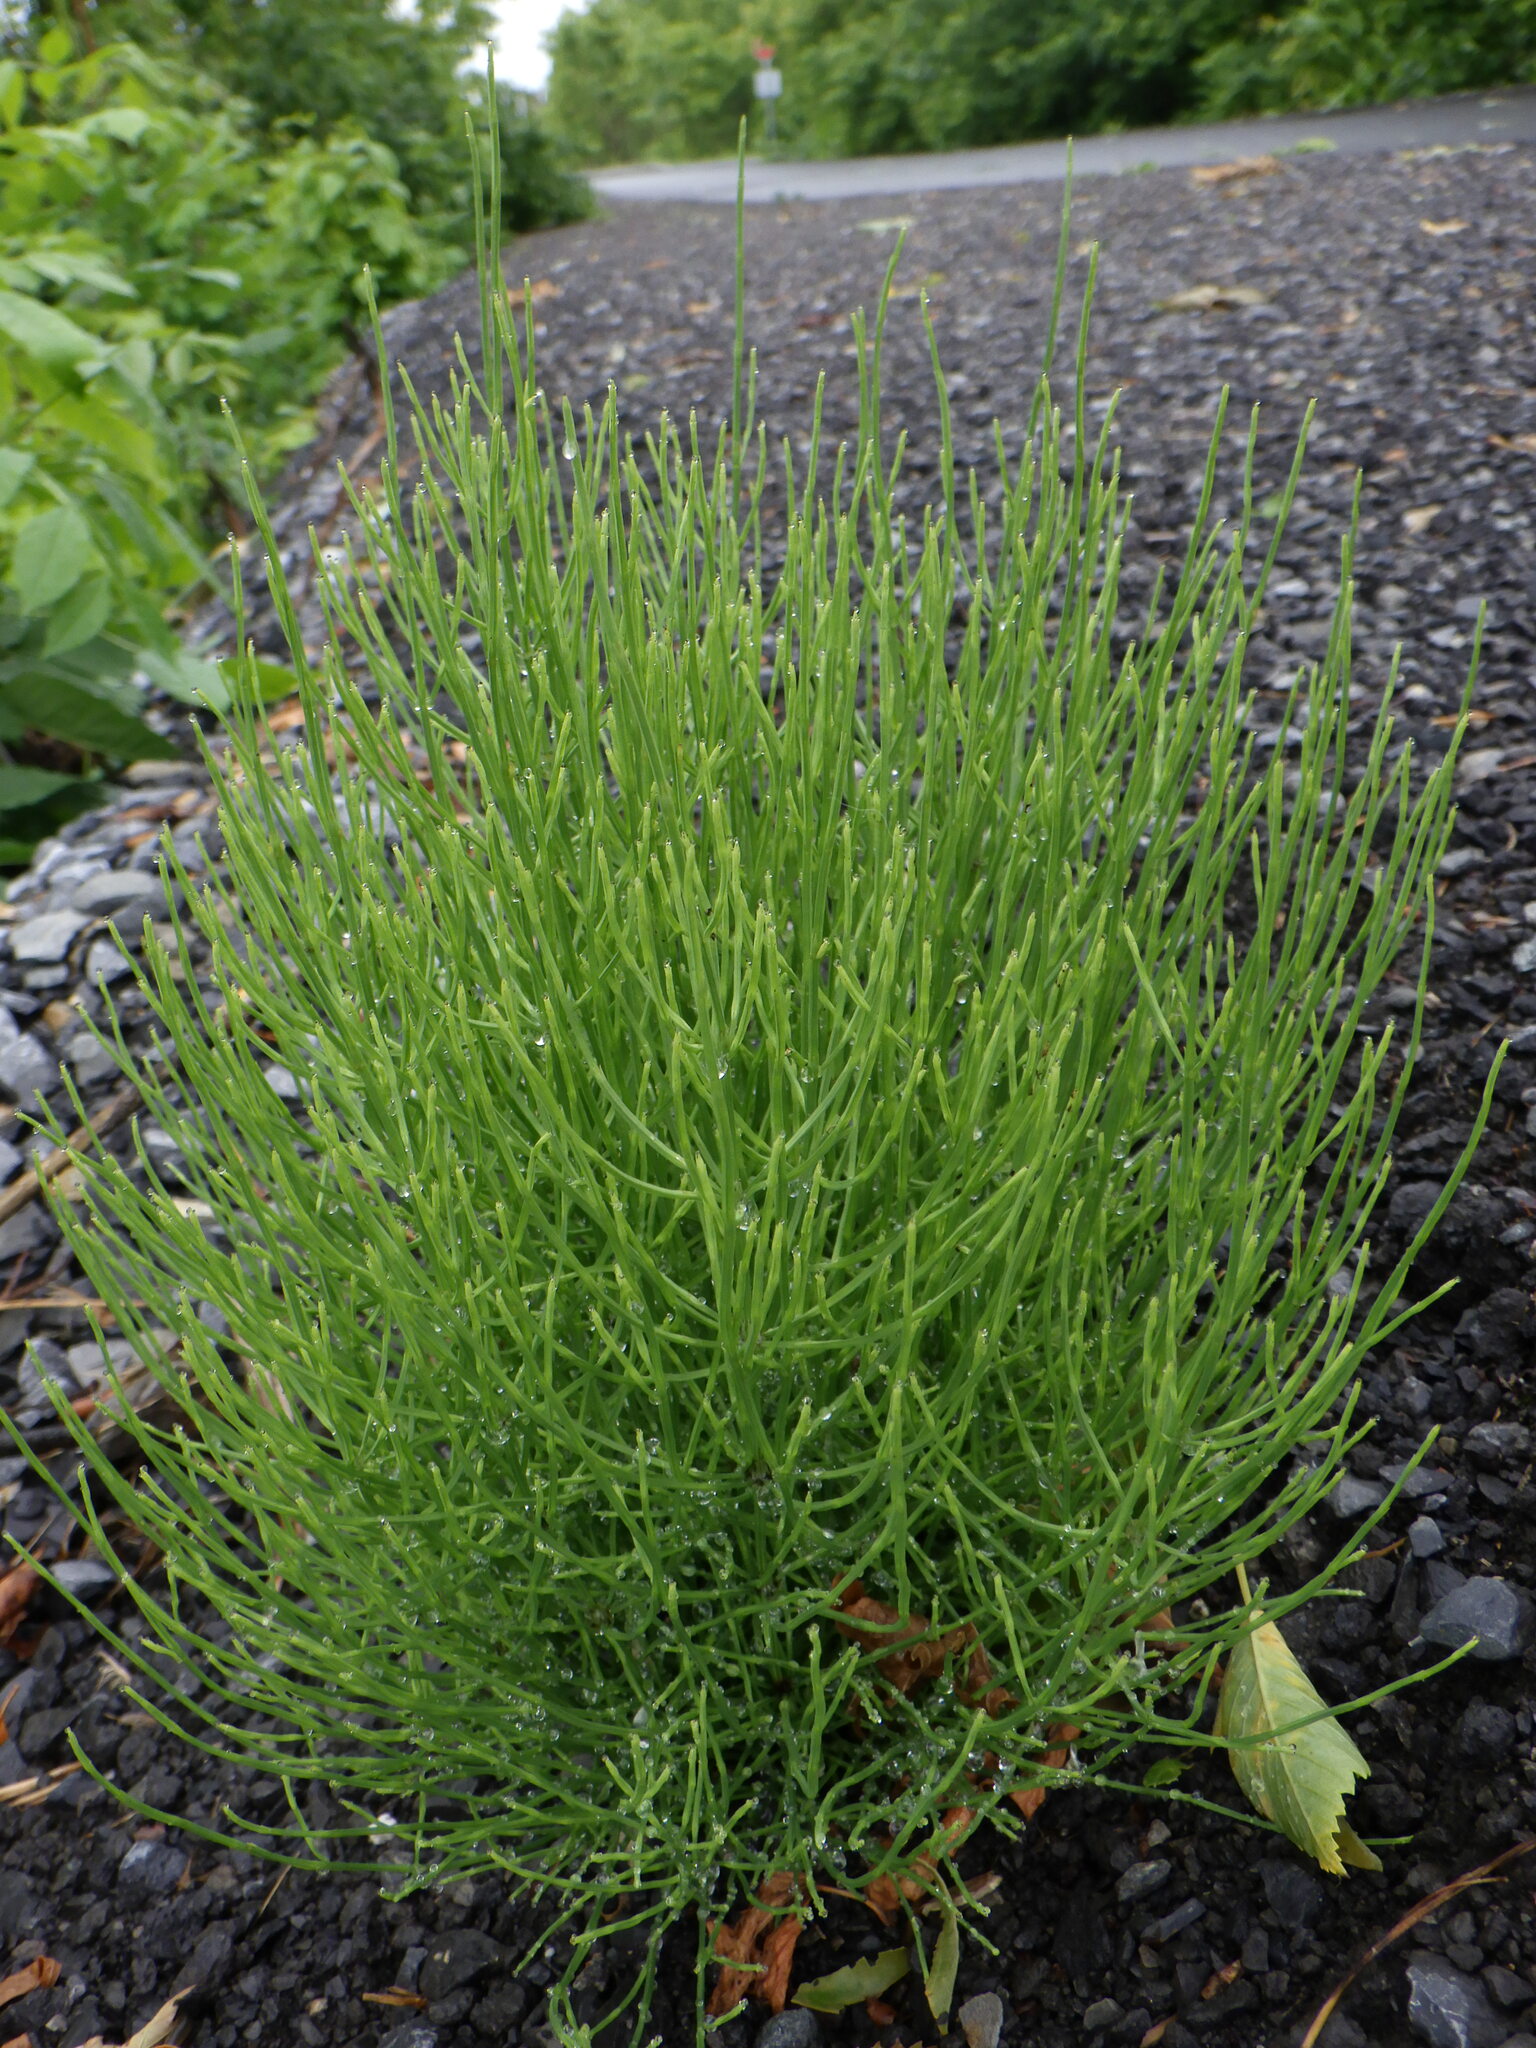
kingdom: Plantae
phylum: Tracheophyta
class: Polypodiopsida
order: Equisetales
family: Equisetaceae
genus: Equisetum
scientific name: Equisetum arvense
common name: Field horsetail
